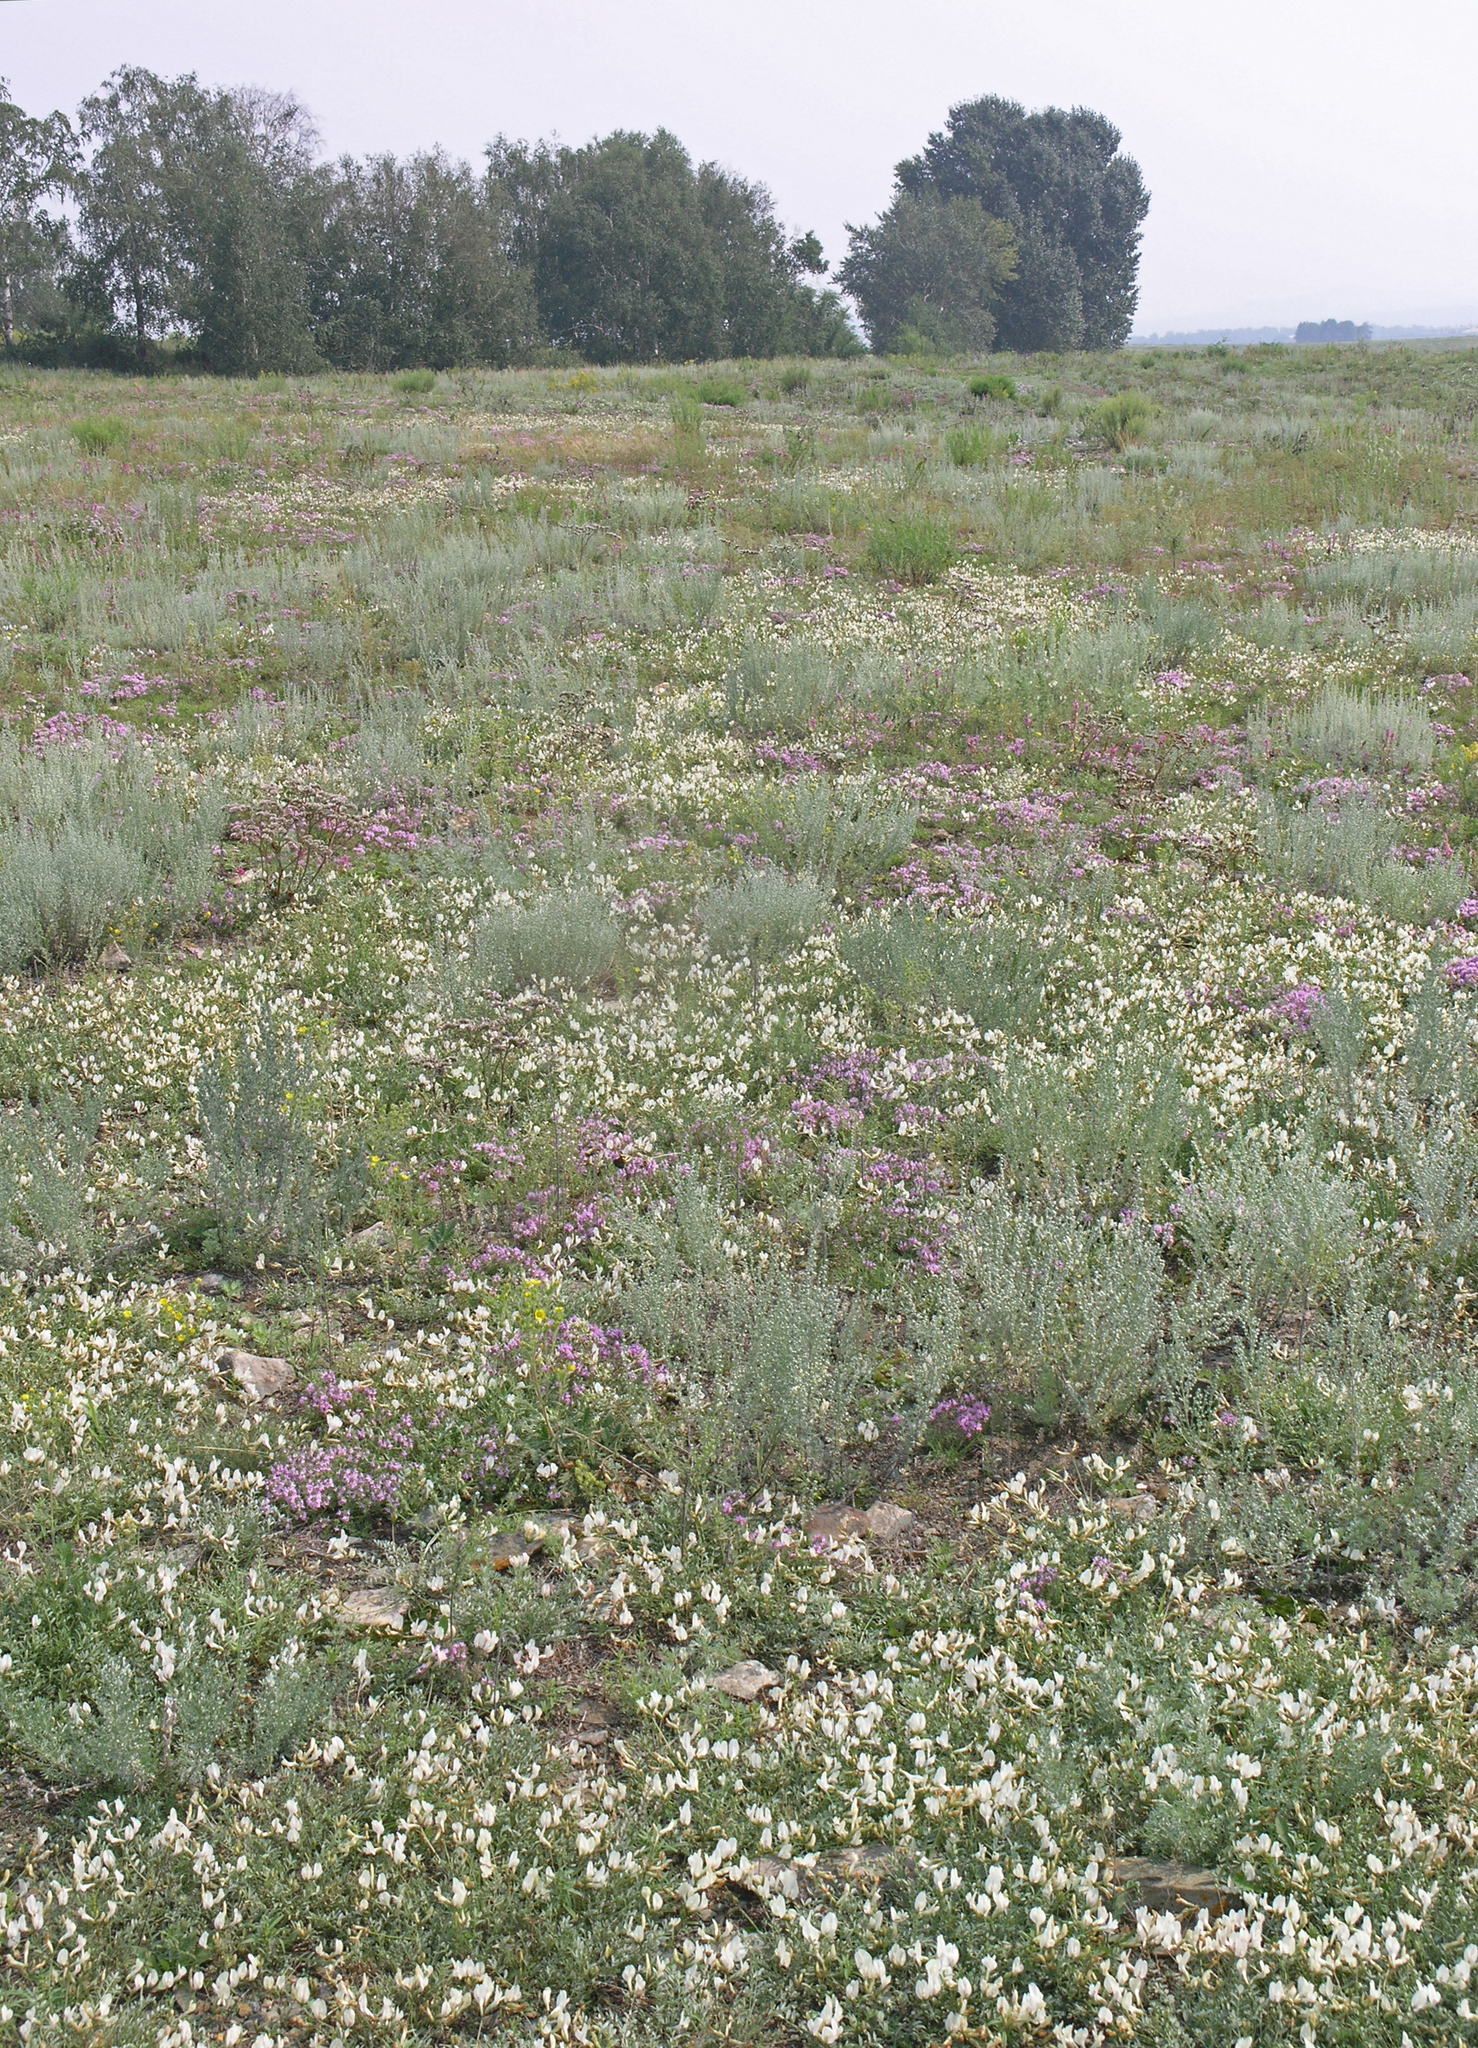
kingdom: Plantae
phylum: Tracheophyta
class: Magnoliopsida
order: Fabales
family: Fabaceae
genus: Astragalus
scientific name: Astragalus depauperatus
